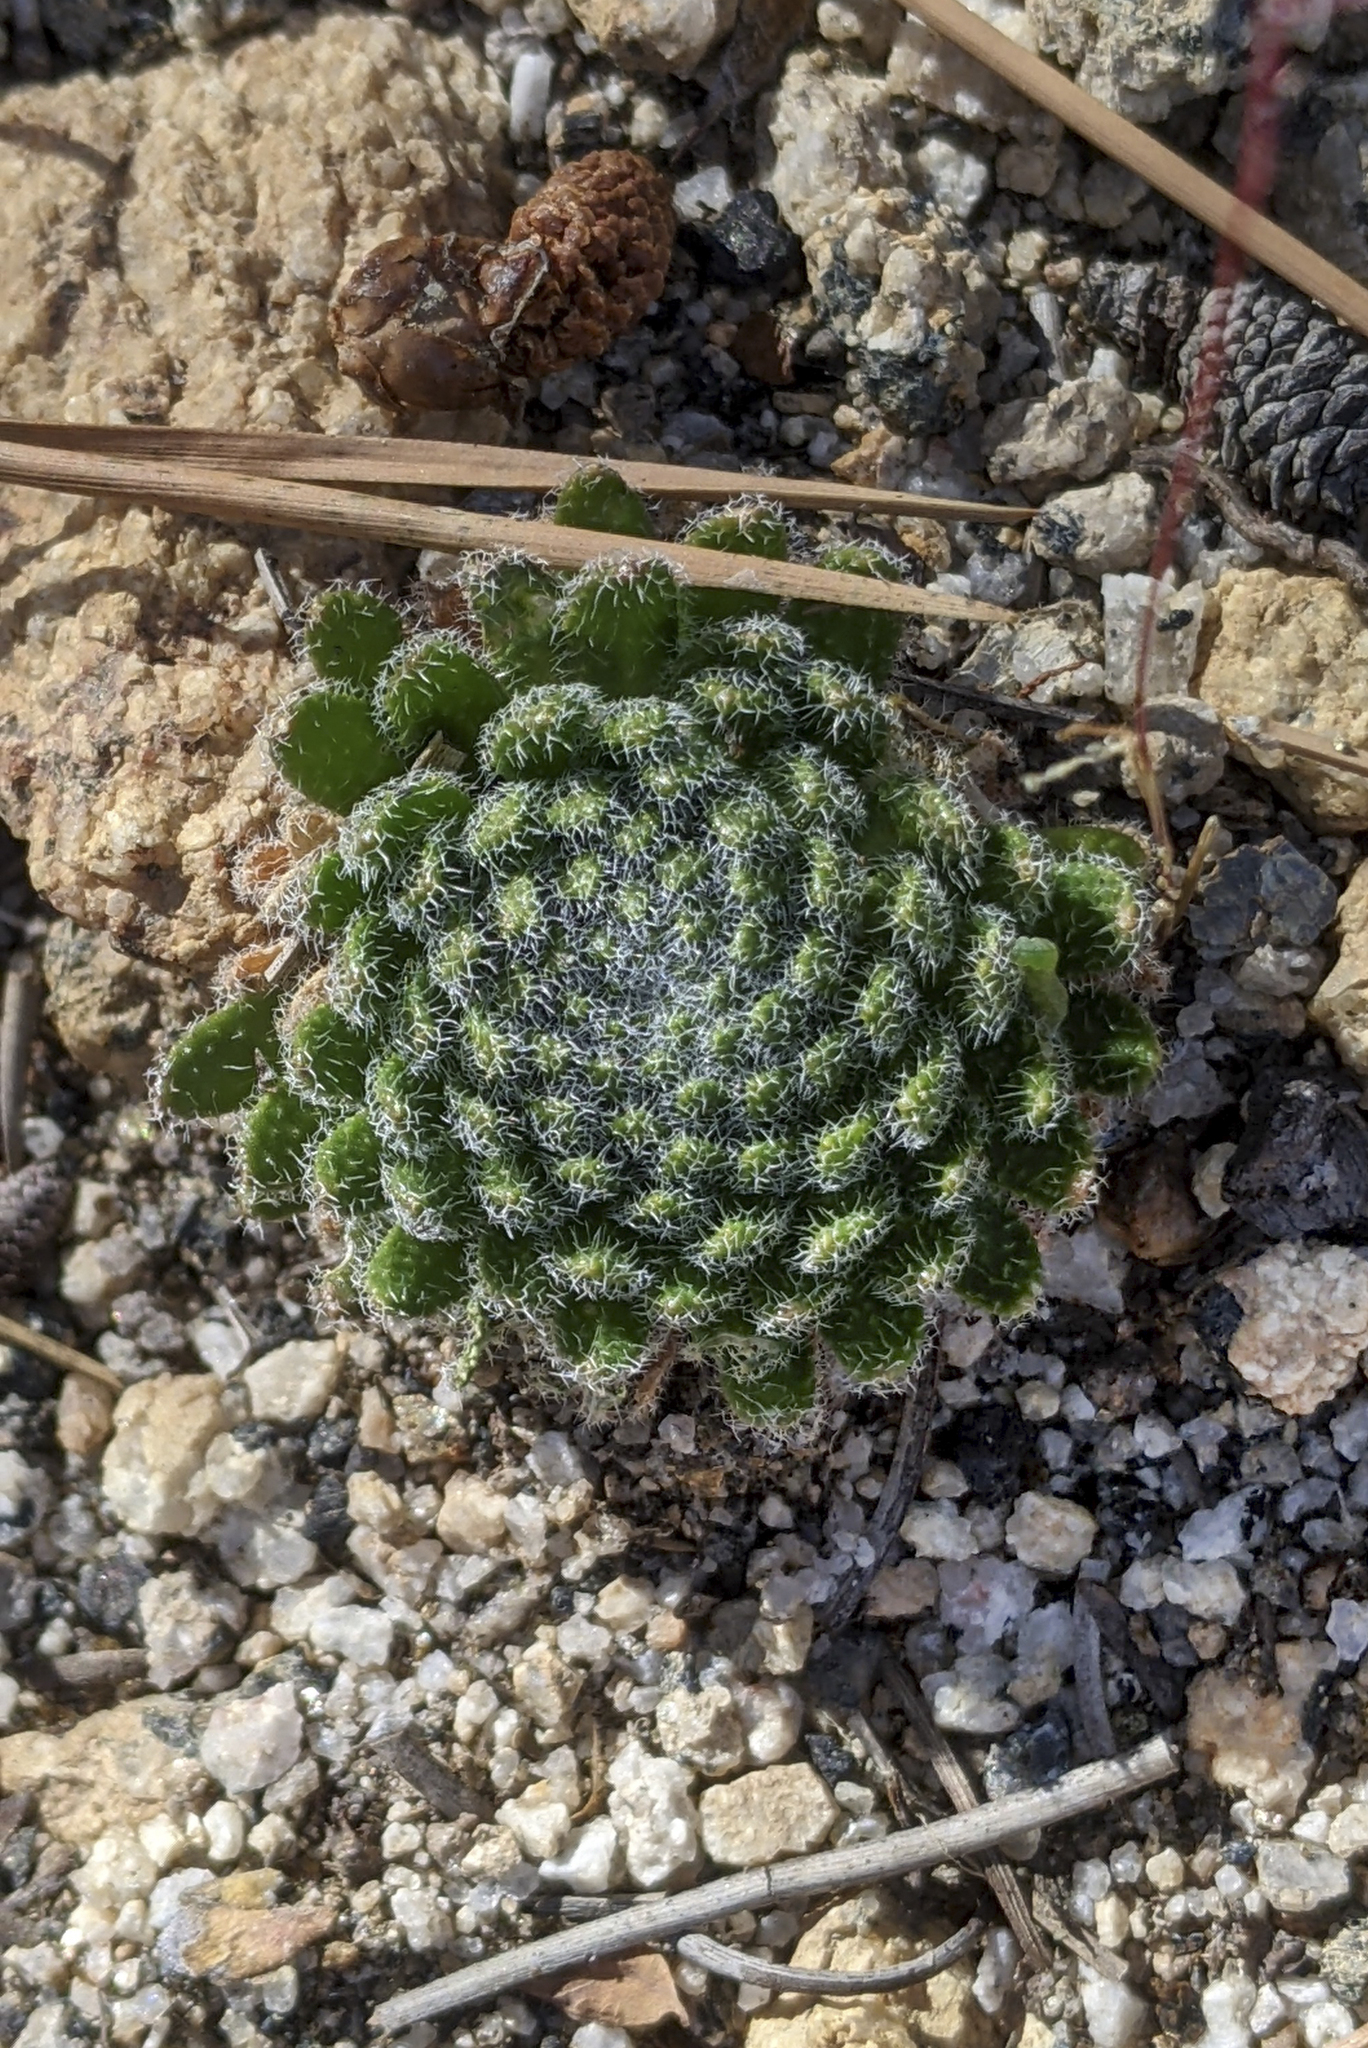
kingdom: Plantae
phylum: Tracheophyta
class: Magnoliopsida
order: Brassicales
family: Brassicaceae
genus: Draba
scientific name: Draba demareei
